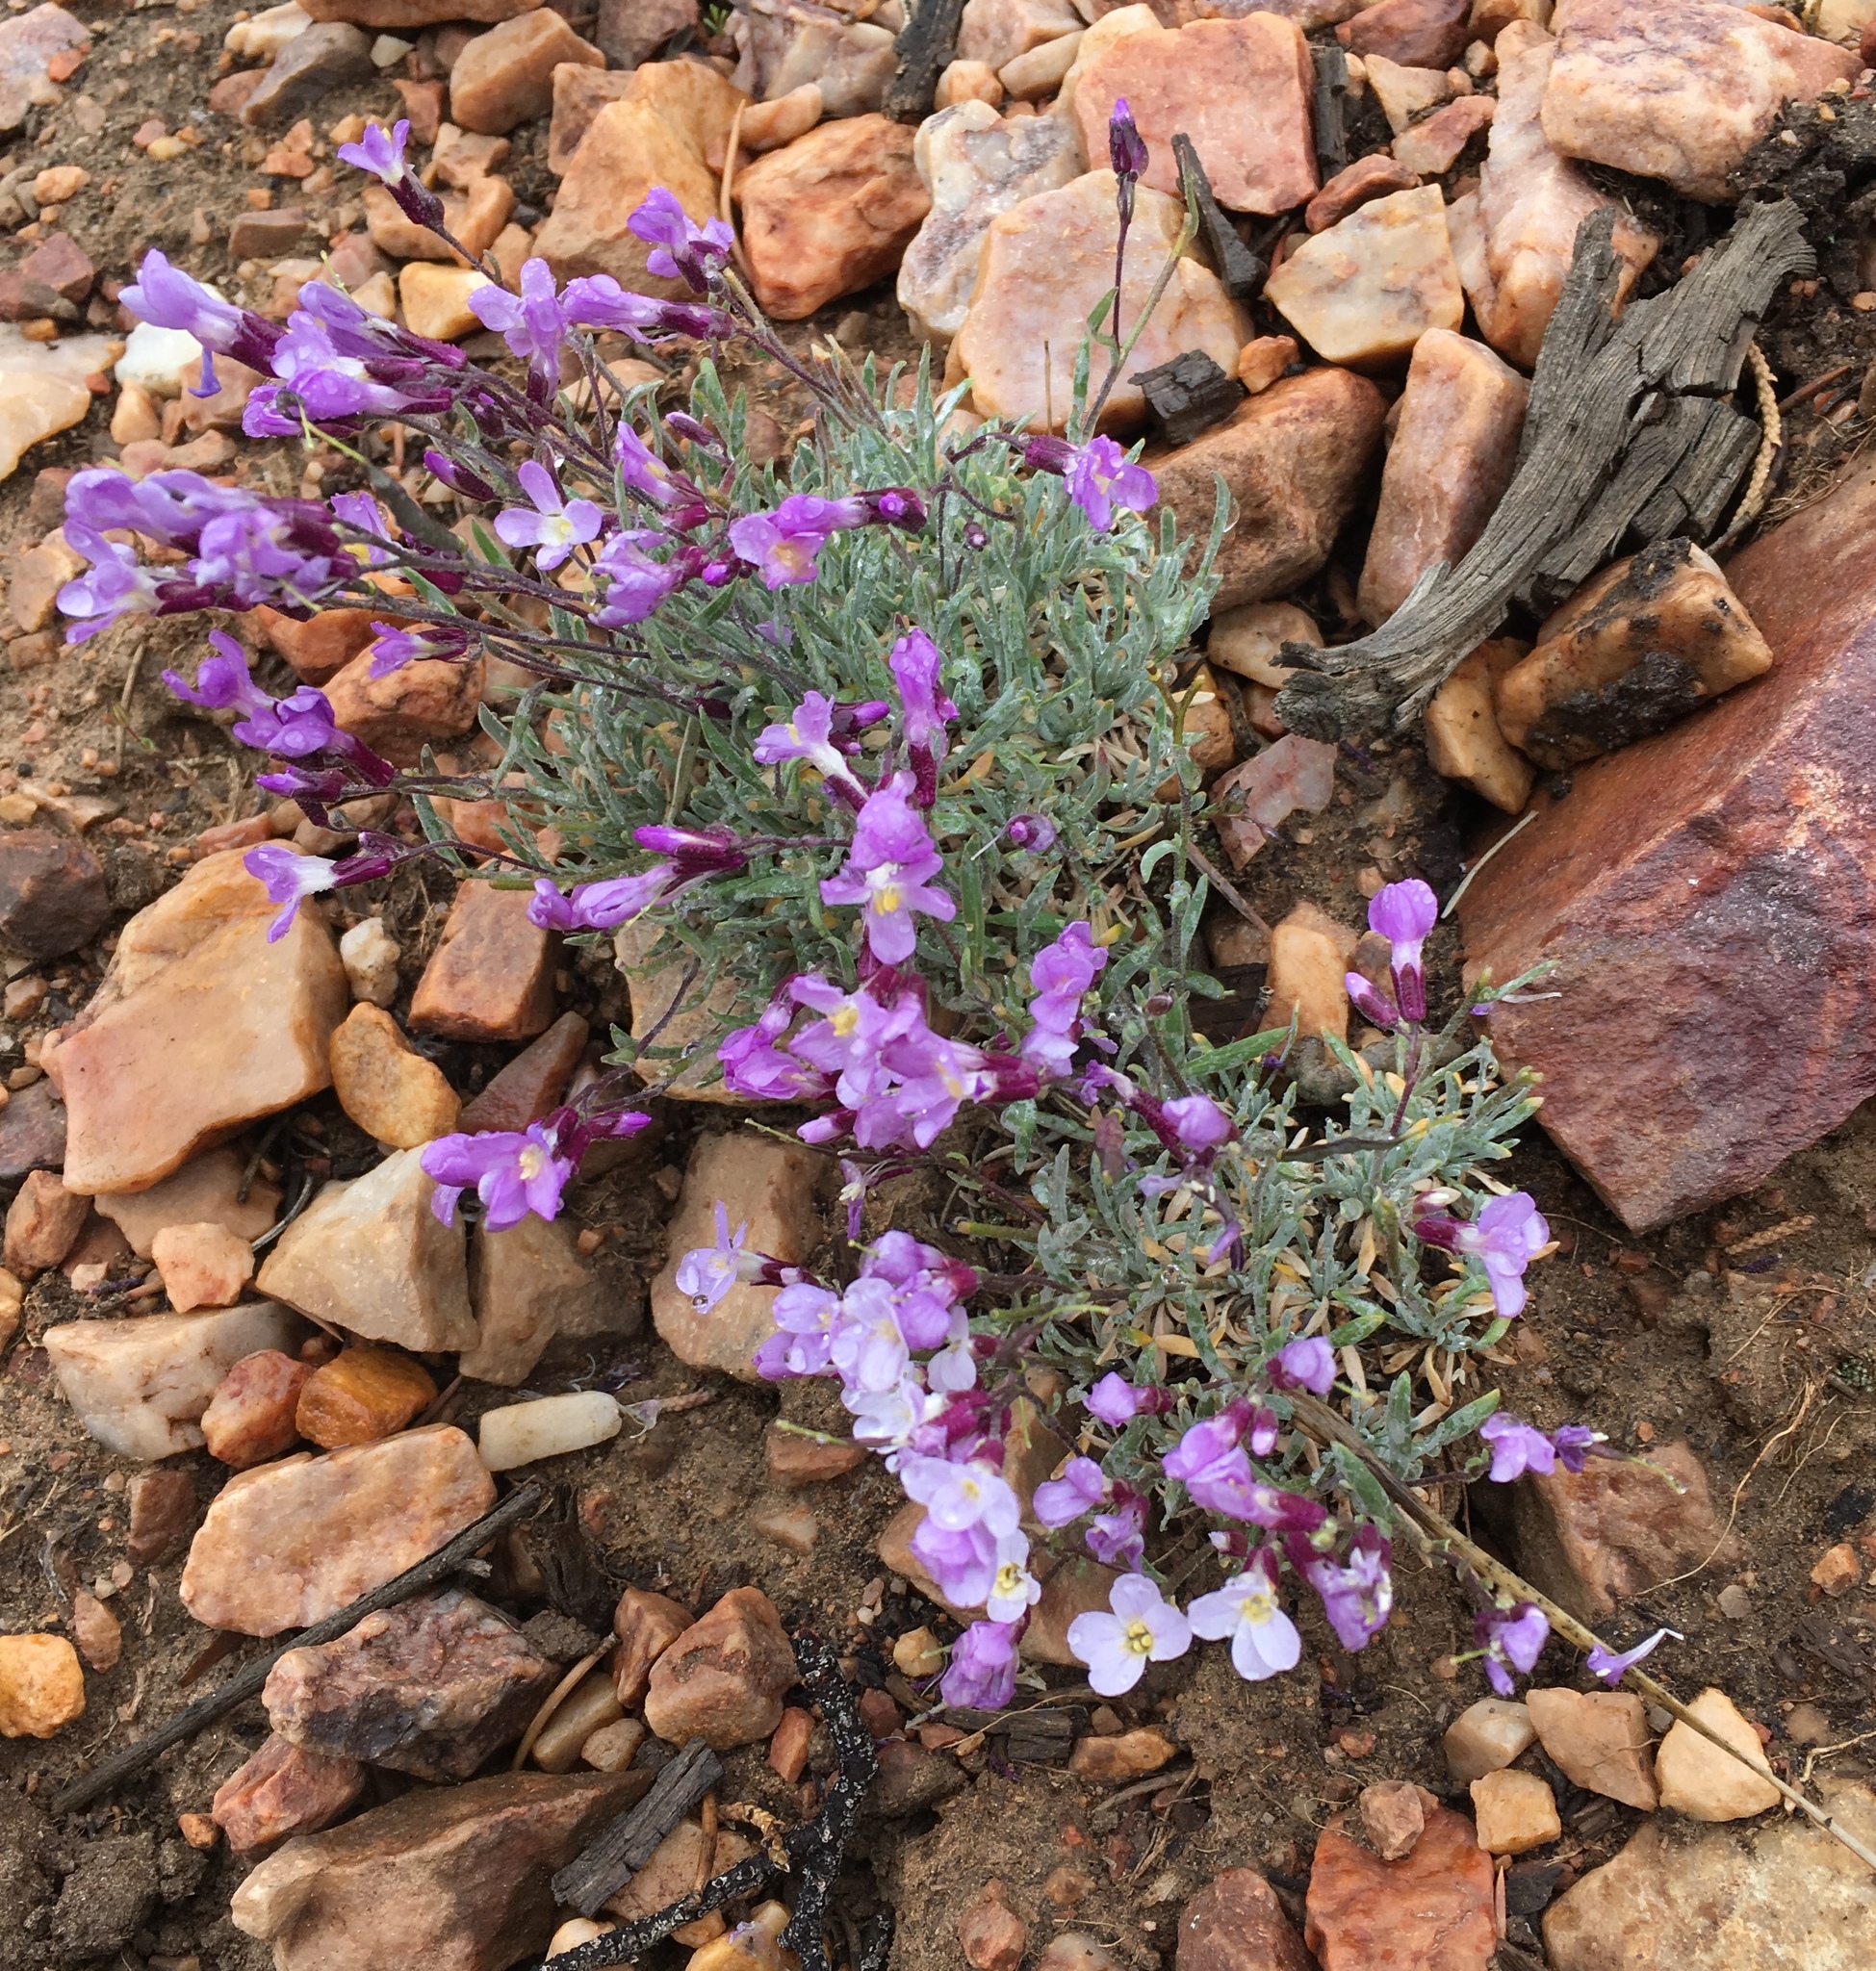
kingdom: Plantae
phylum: Tracheophyta
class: Magnoliopsida
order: Brassicales
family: Brassicaceae
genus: Boechera
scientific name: Boechera parishii
